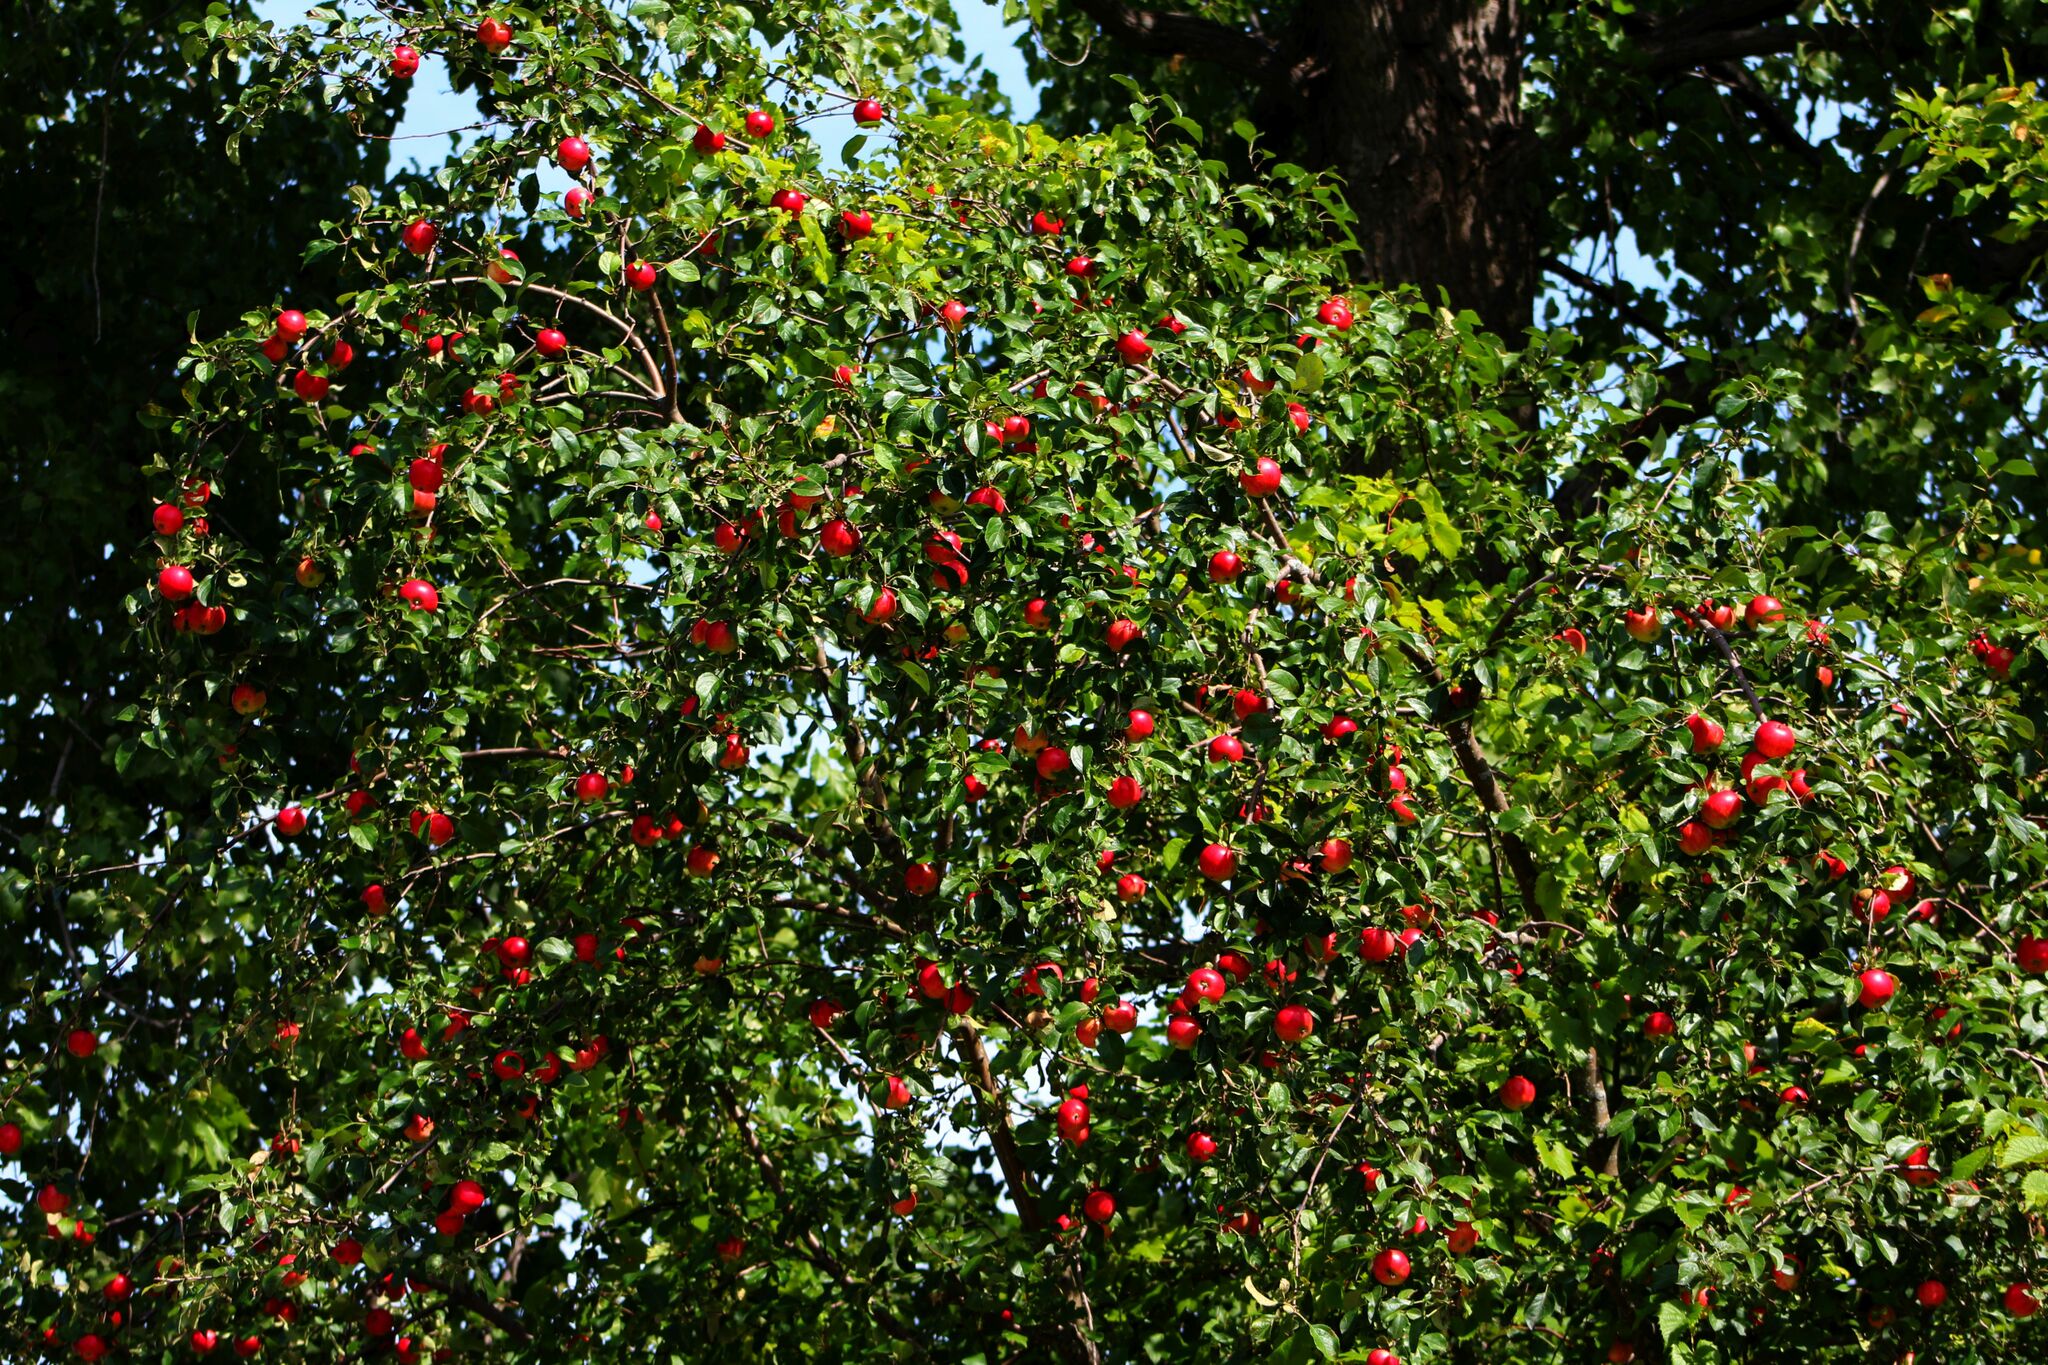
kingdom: Plantae
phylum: Tracheophyta
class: Magnoliopsida
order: Rosales
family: Rosaceae
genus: Malus
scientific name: Malus domestica
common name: Apple
